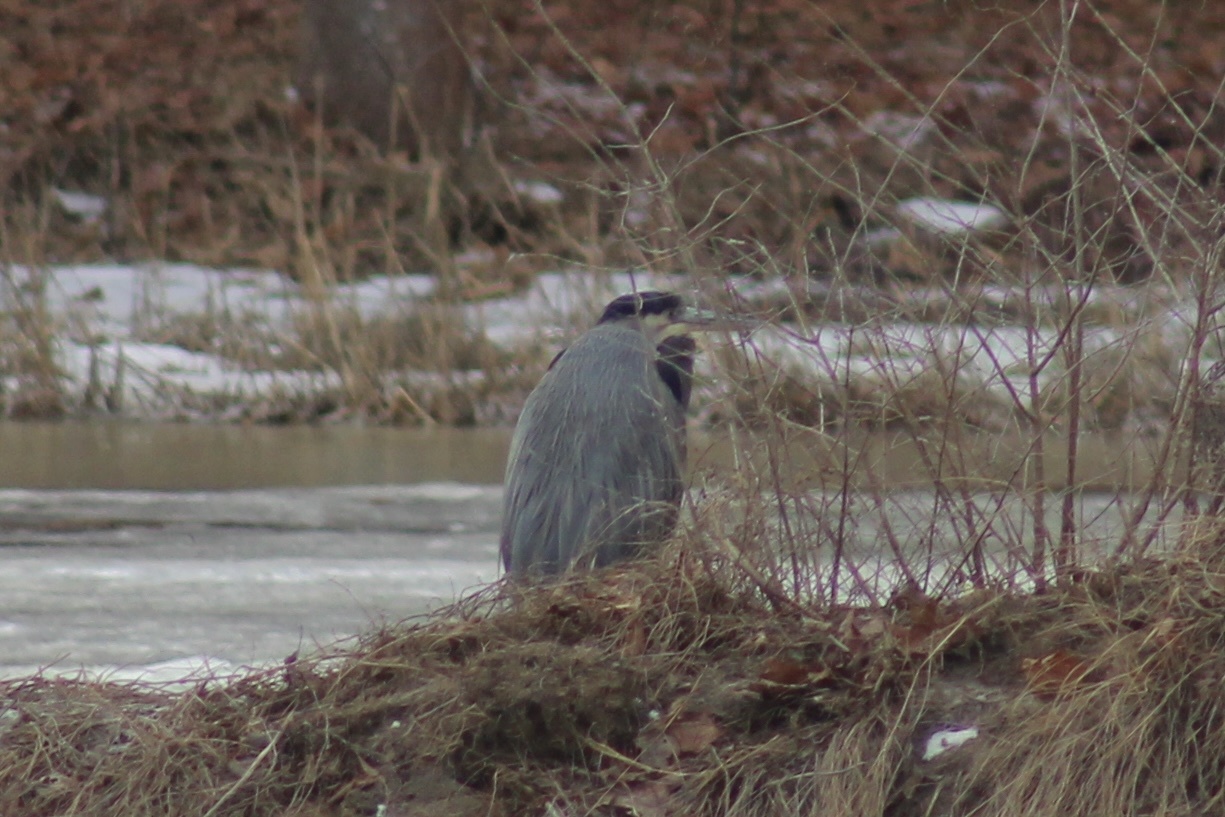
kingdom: Animalia
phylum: Chordata
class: Aves
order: Pelecaniformes
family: Ardeidae
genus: Ardea
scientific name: Ardea herodias
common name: Great blue heron
